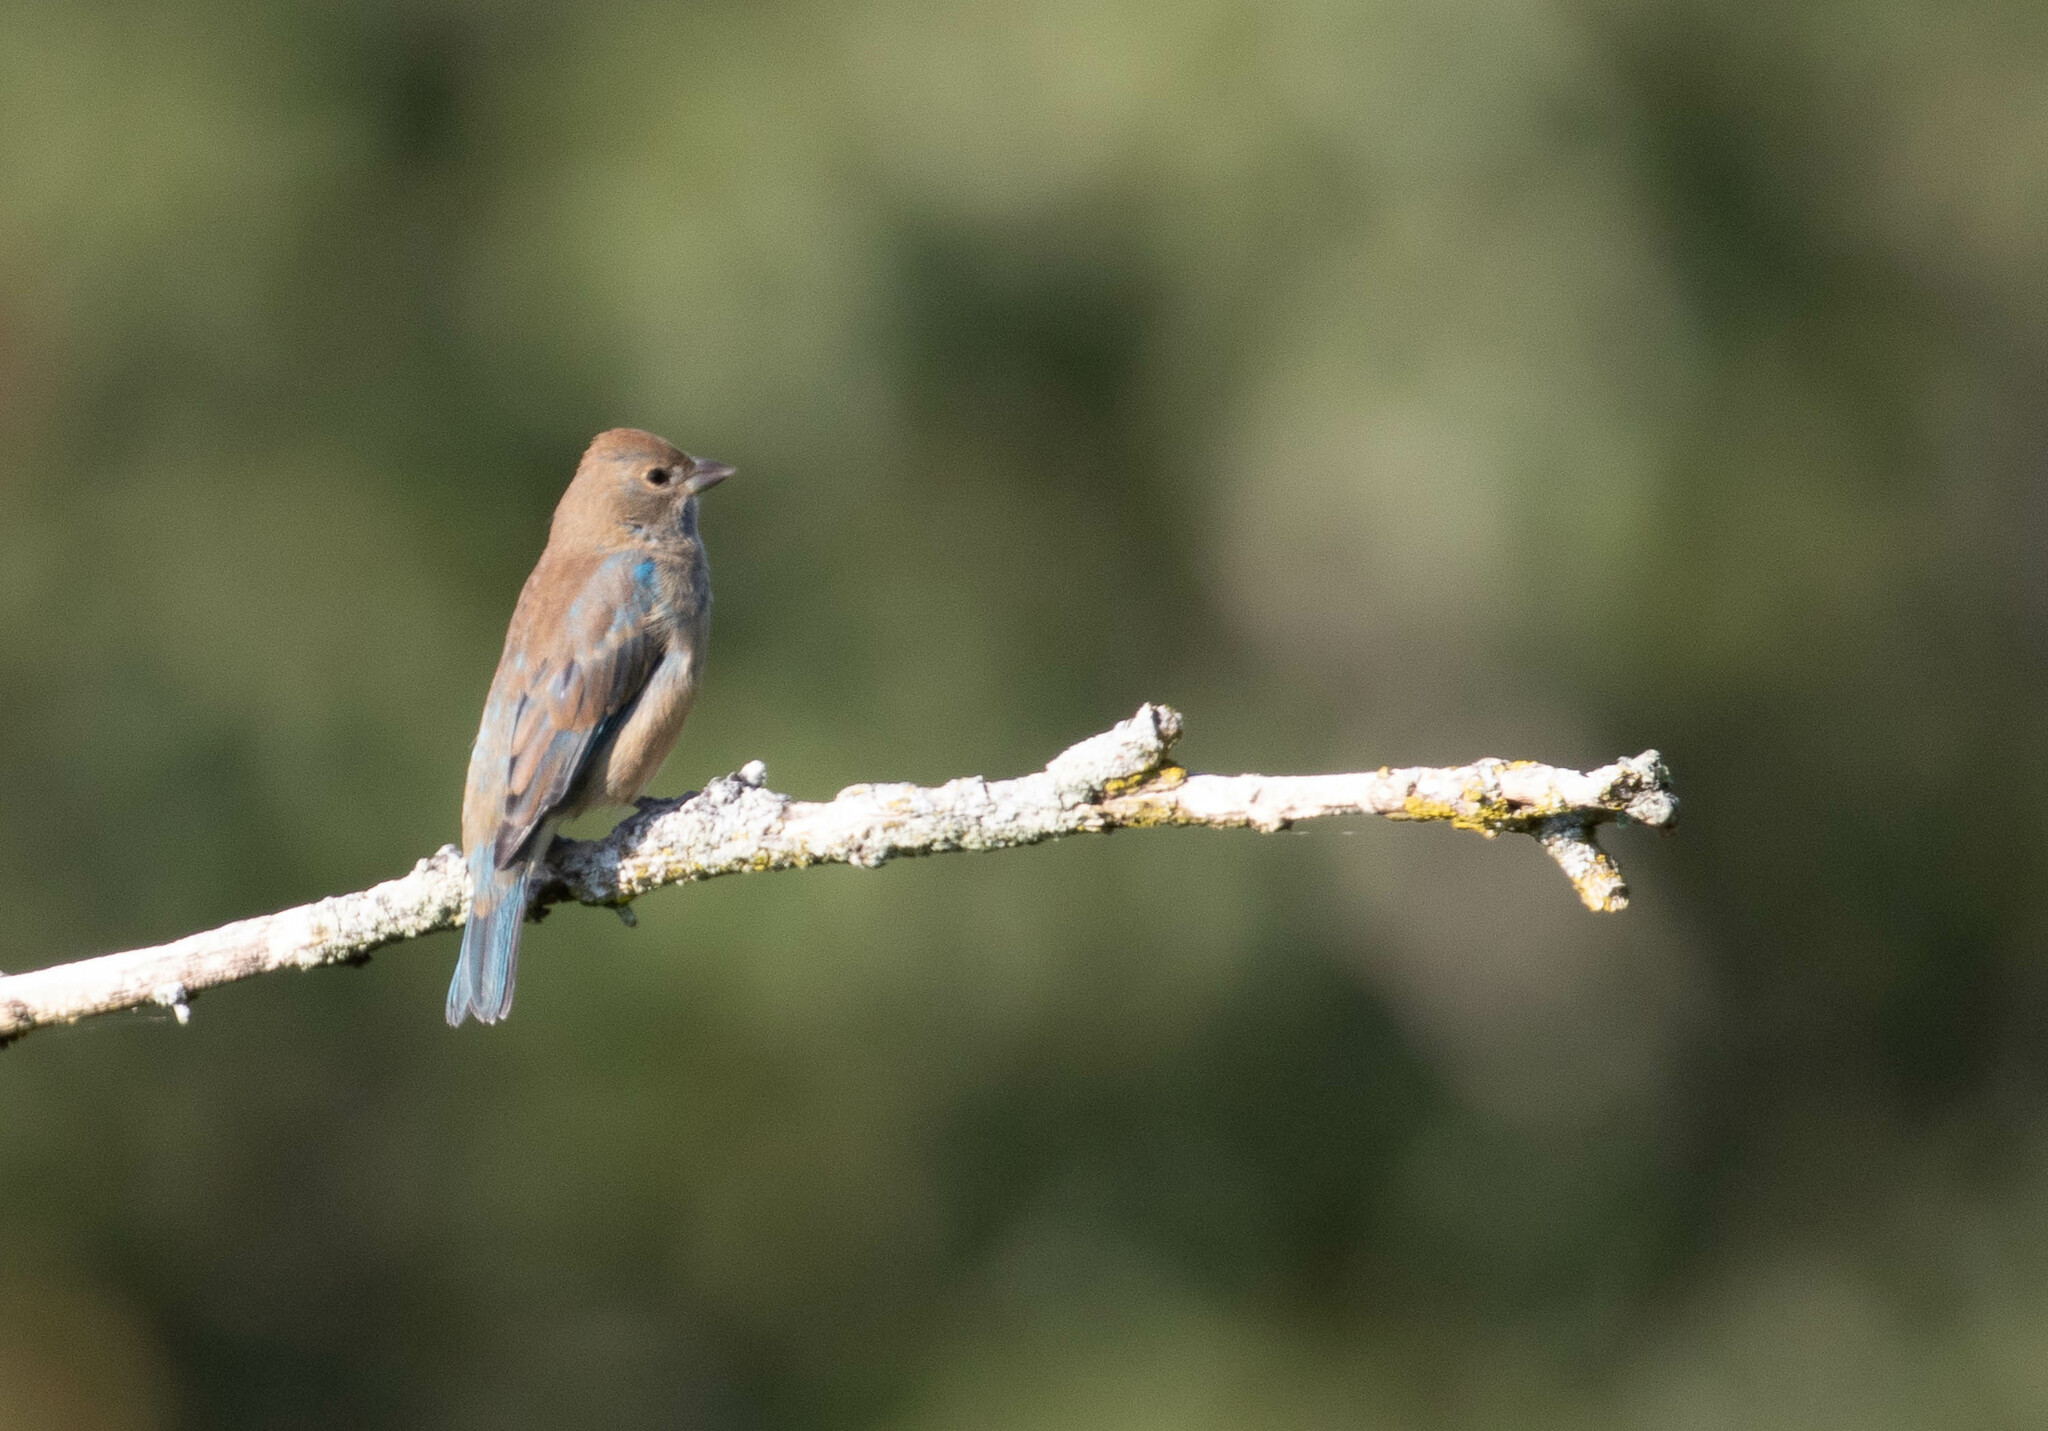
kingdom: Animalia
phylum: Chordata
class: Aves
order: Passeriformes
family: Cardinalidae
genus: Passerina
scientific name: Passerina cyanea
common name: Indigo bunting
